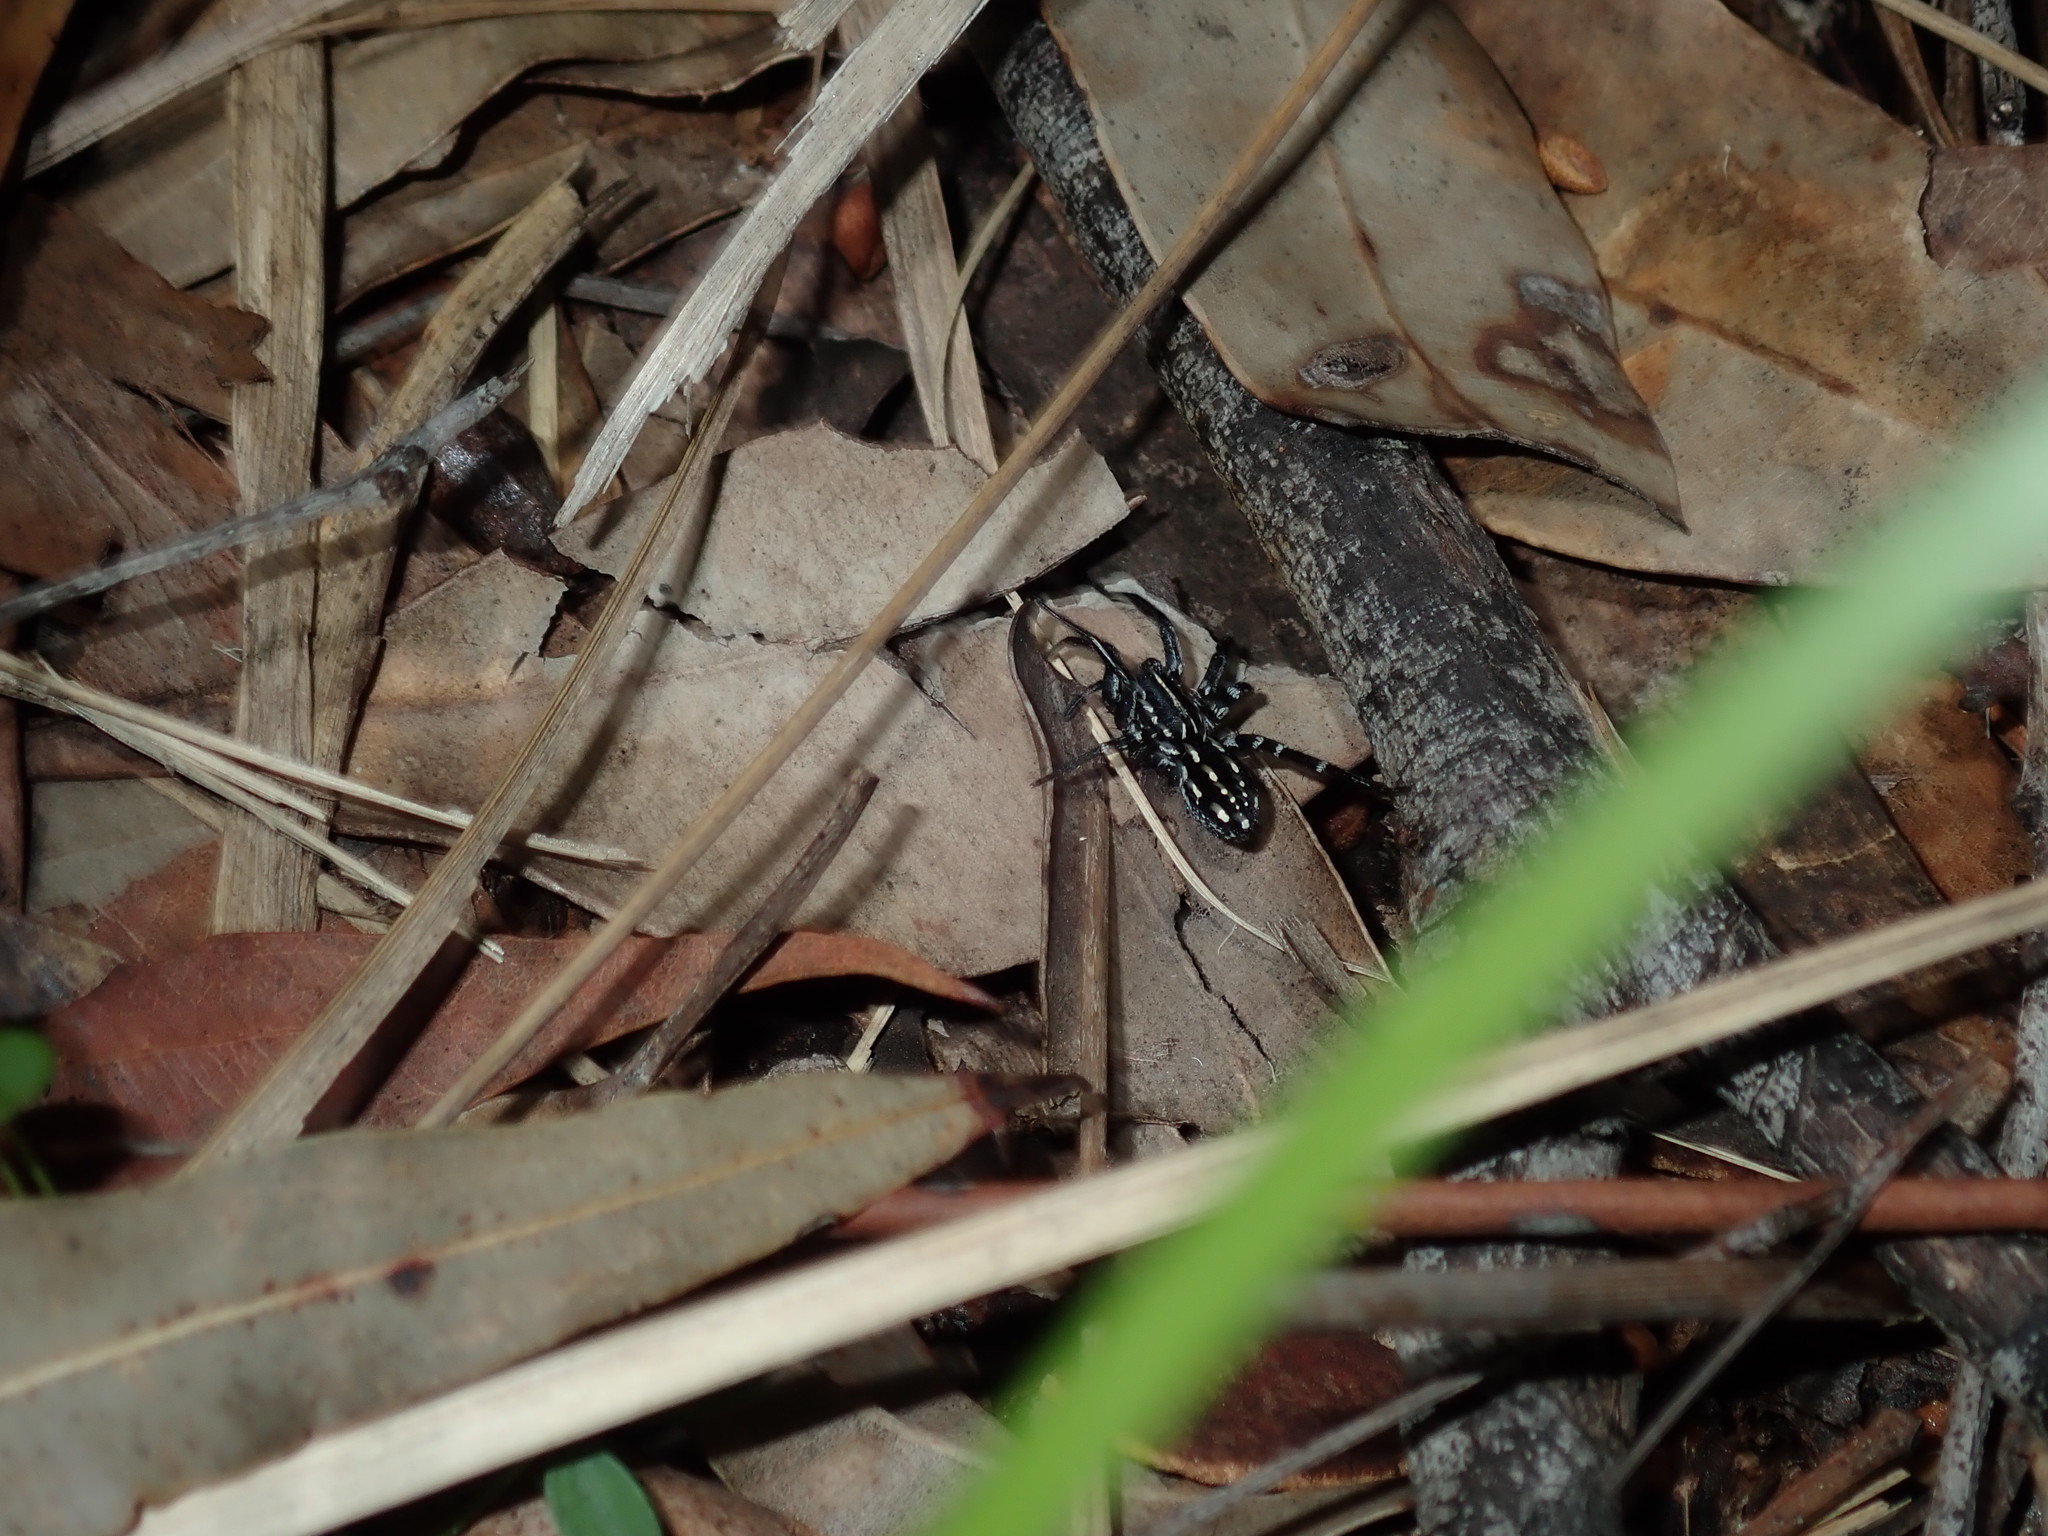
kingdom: Animalia
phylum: Arthropoda
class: Arachnida
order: Araneae
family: Corinnidae
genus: Nyssus
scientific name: Nyssus albopunctatus
